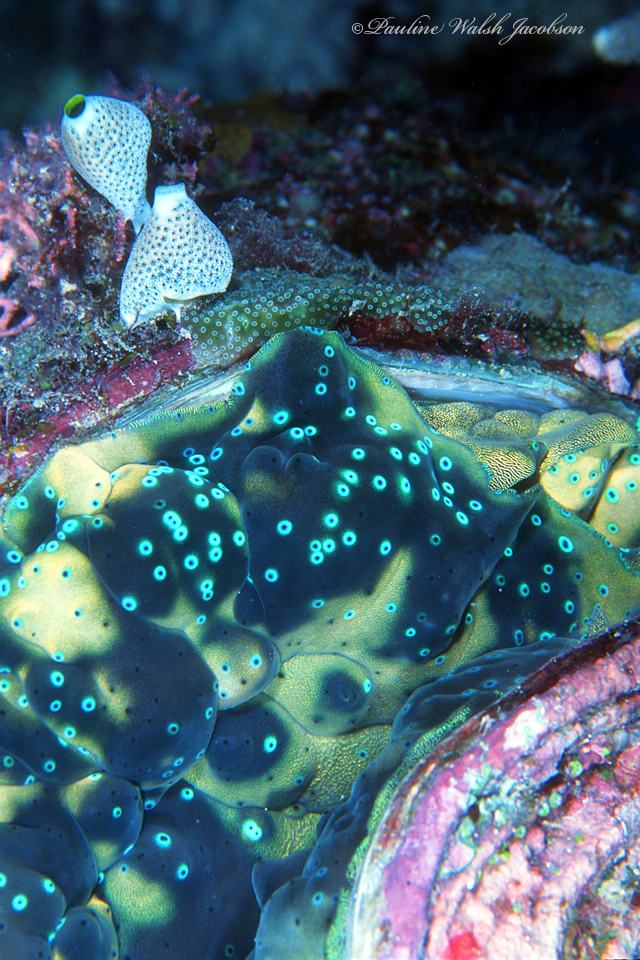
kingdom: Animalia
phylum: Mollusca
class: Bivalvia
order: Cardiida
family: Cardiidae
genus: Tridacna
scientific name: Tridacna gigas
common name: Giant clam
